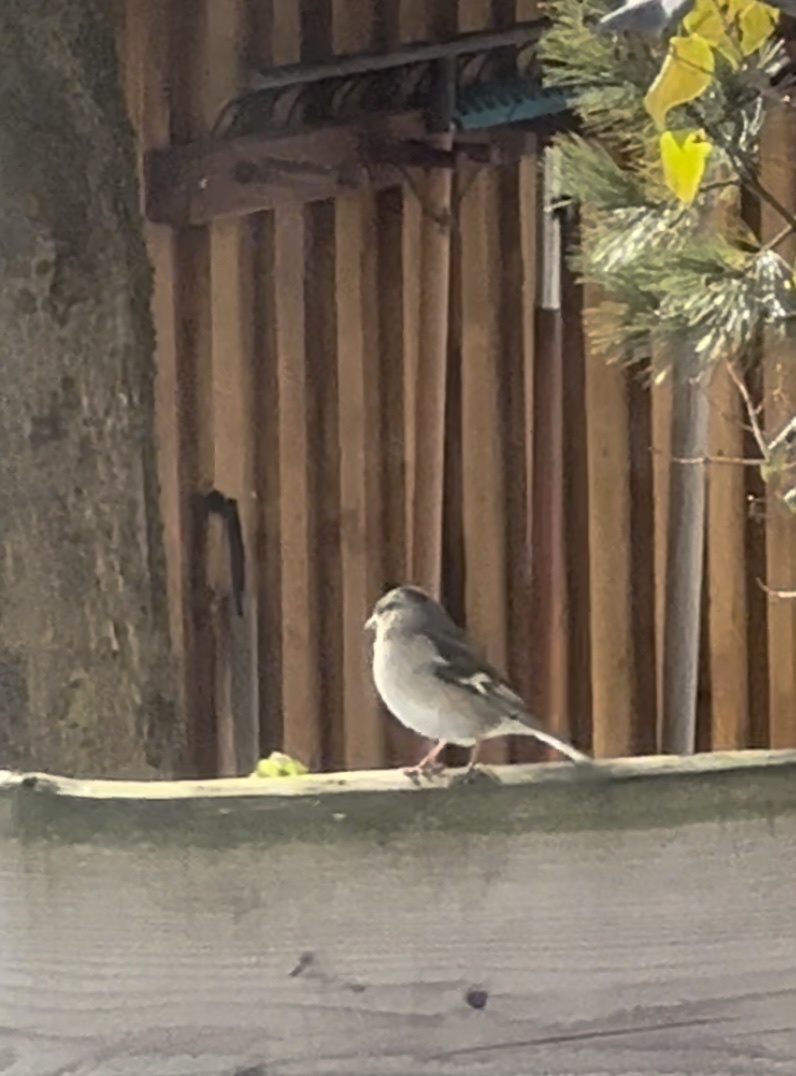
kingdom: Animalia
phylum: Chordata
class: Aves
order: Passeriformes
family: Fringillidae
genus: Fringilla
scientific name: Fringilla coelebs
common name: Common chaffinch
